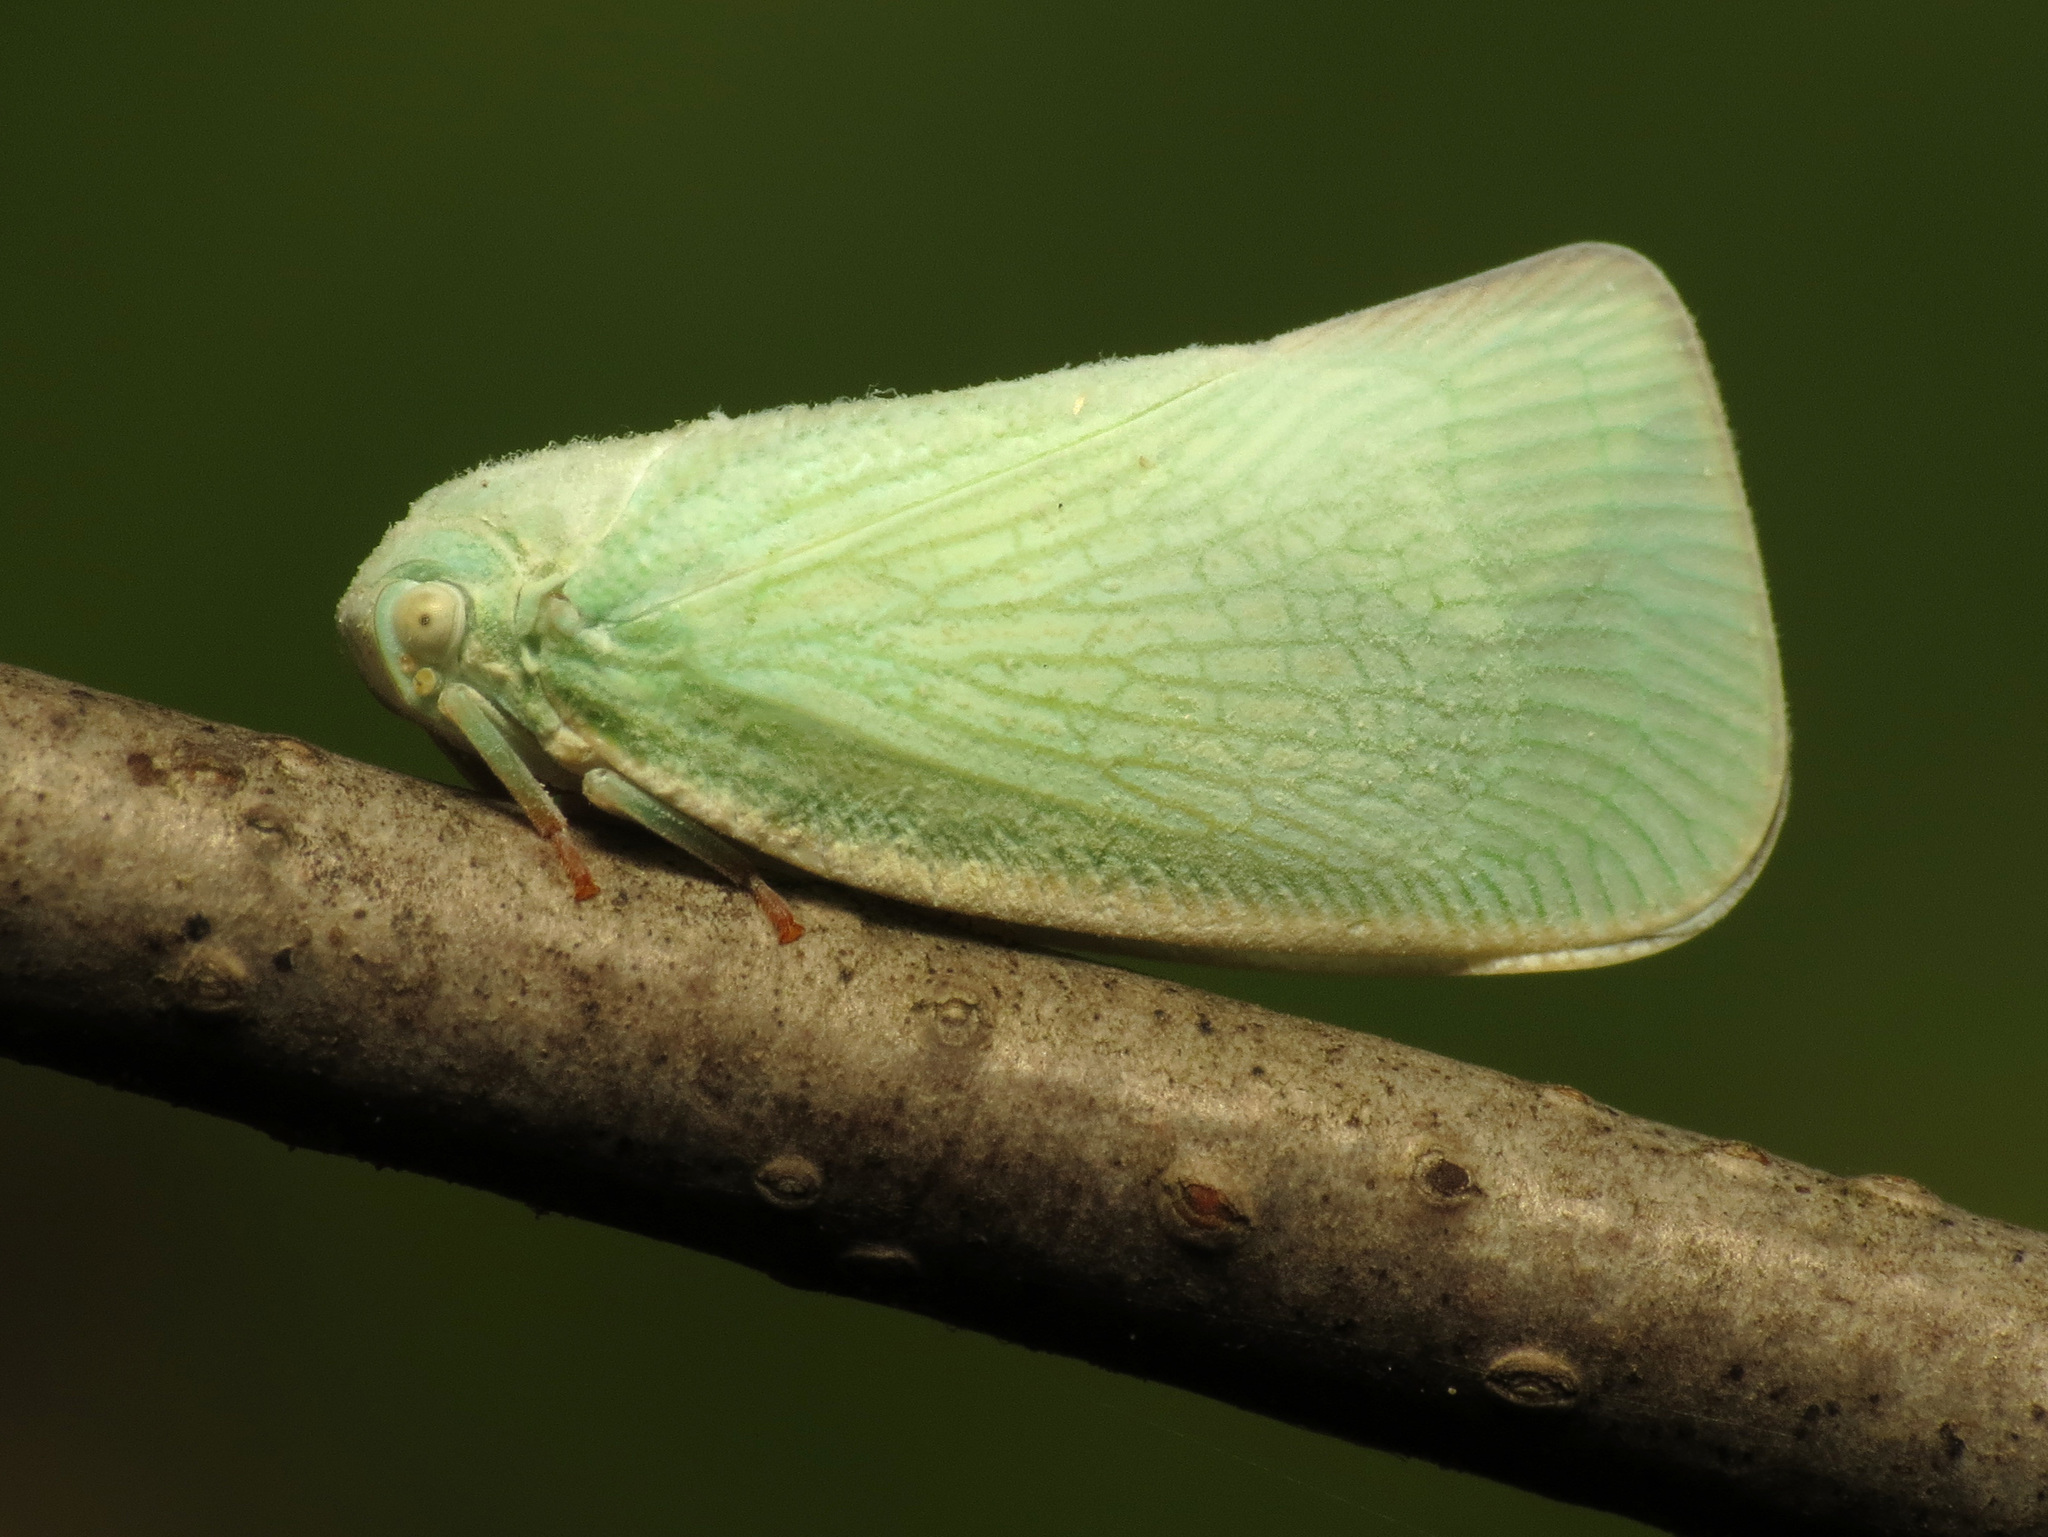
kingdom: Animalia
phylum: Arthropoda
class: Insecta
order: Hemiptera
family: Flatidae
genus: Flatormenis
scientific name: Flatormenis proxima
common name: Northern flatid planthopper
